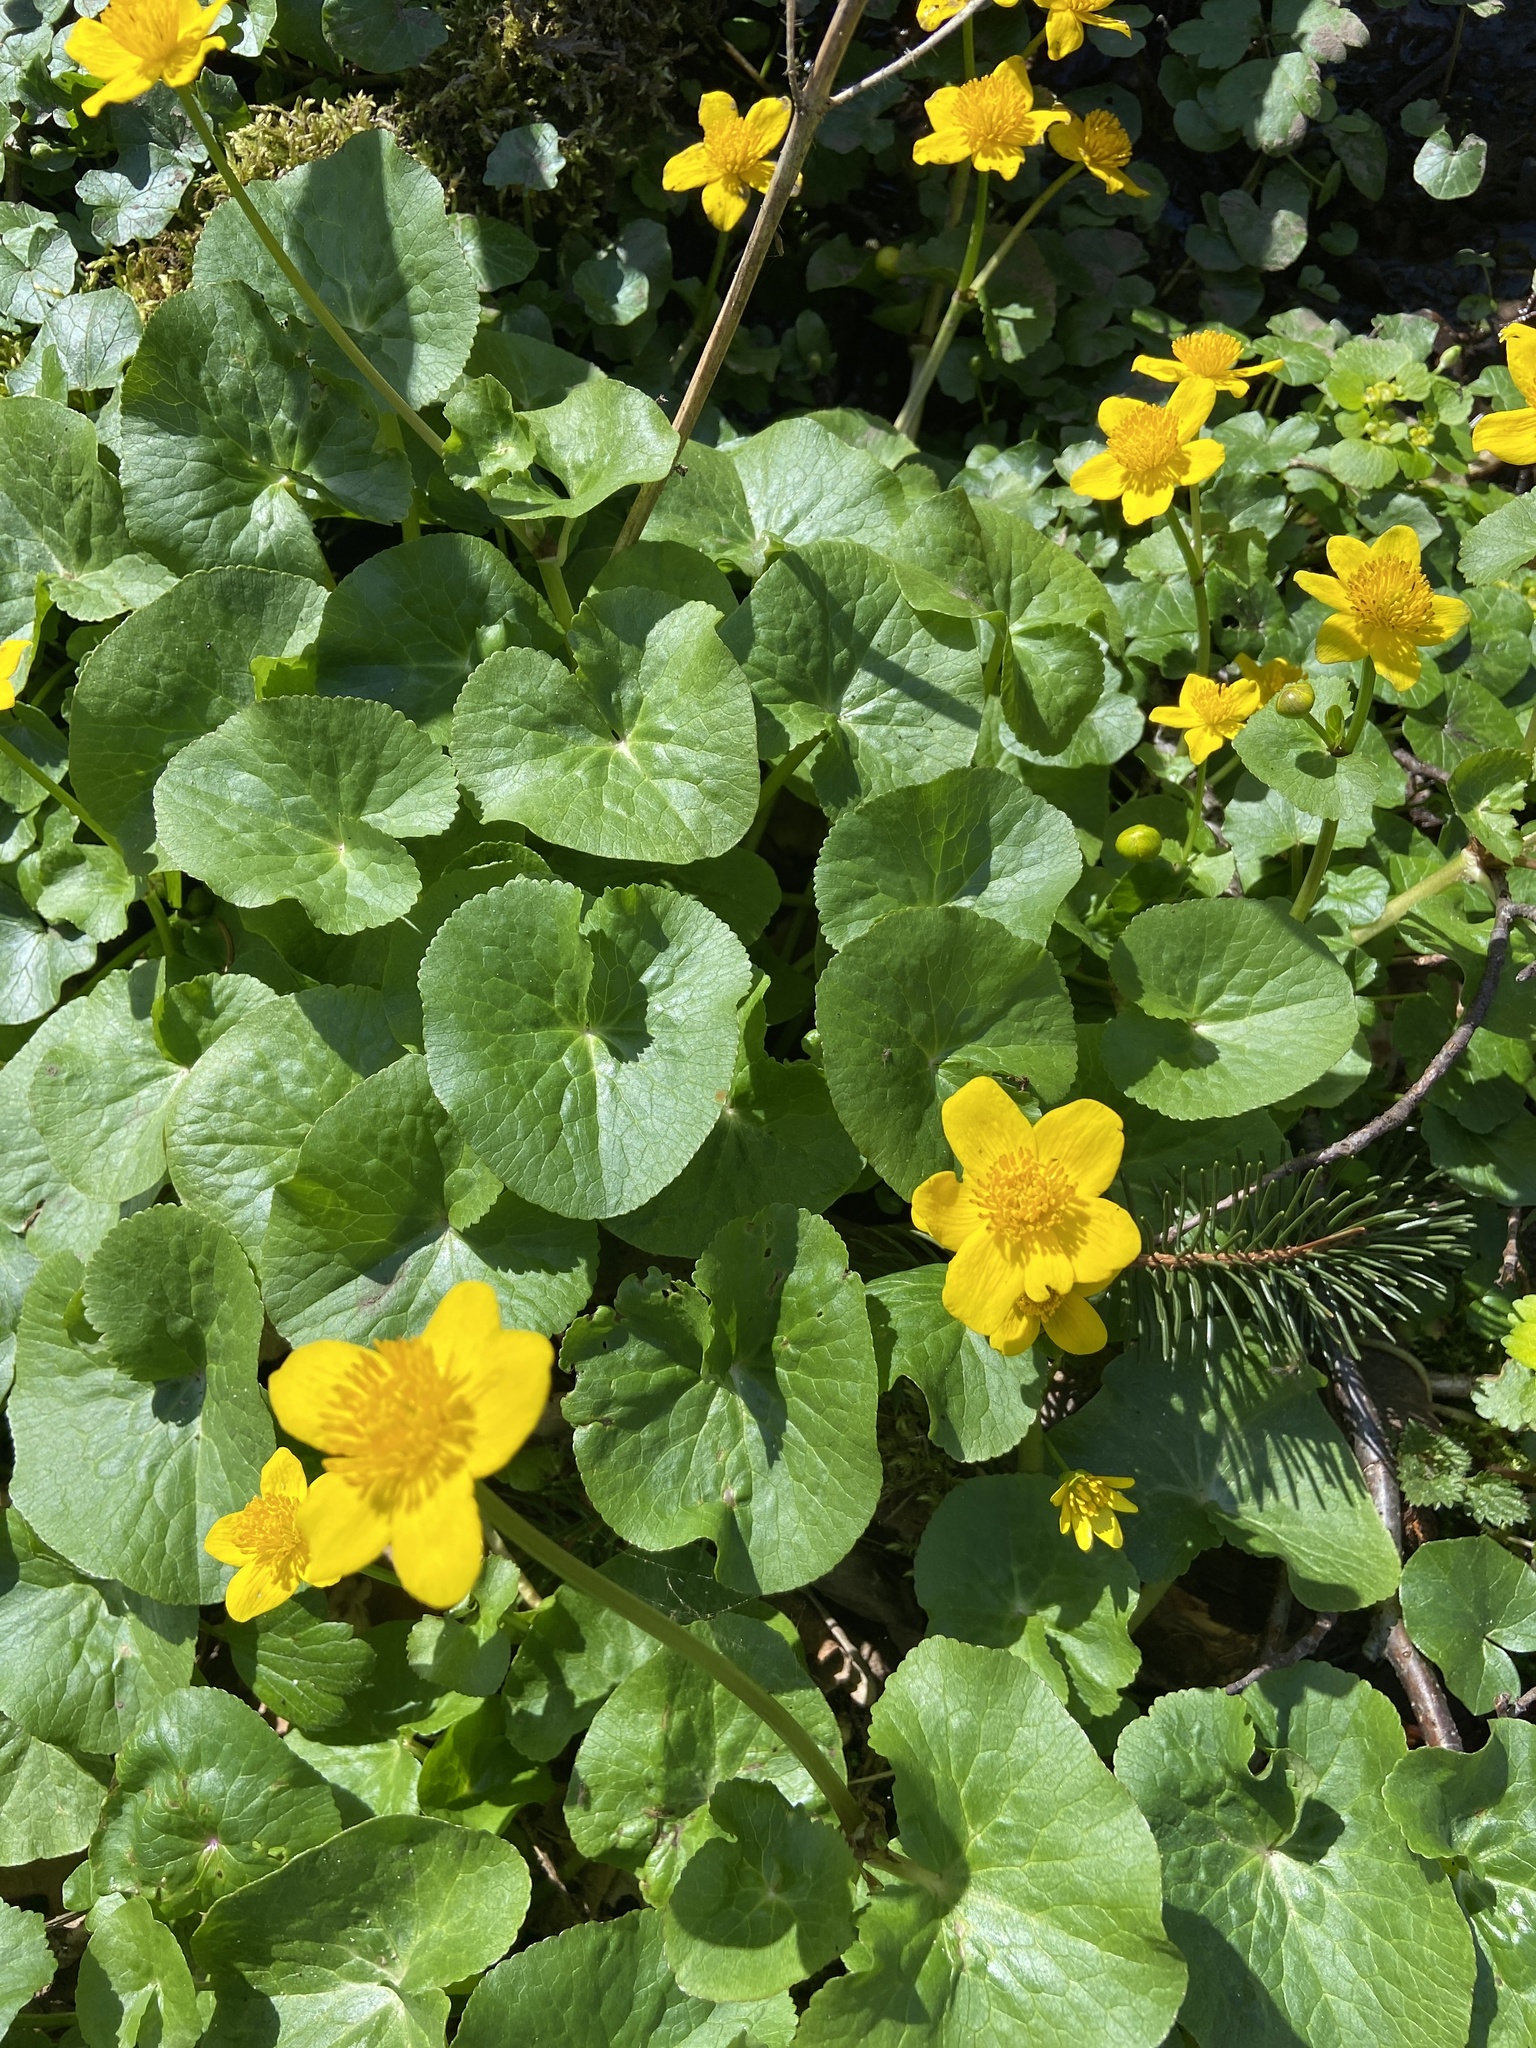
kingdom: Plantae
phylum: Tracheophyta
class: Magnoliopsida
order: Ranunculales
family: Ranunculaceae
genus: Caltha
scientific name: Caltha palustris
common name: Marsh marigold
